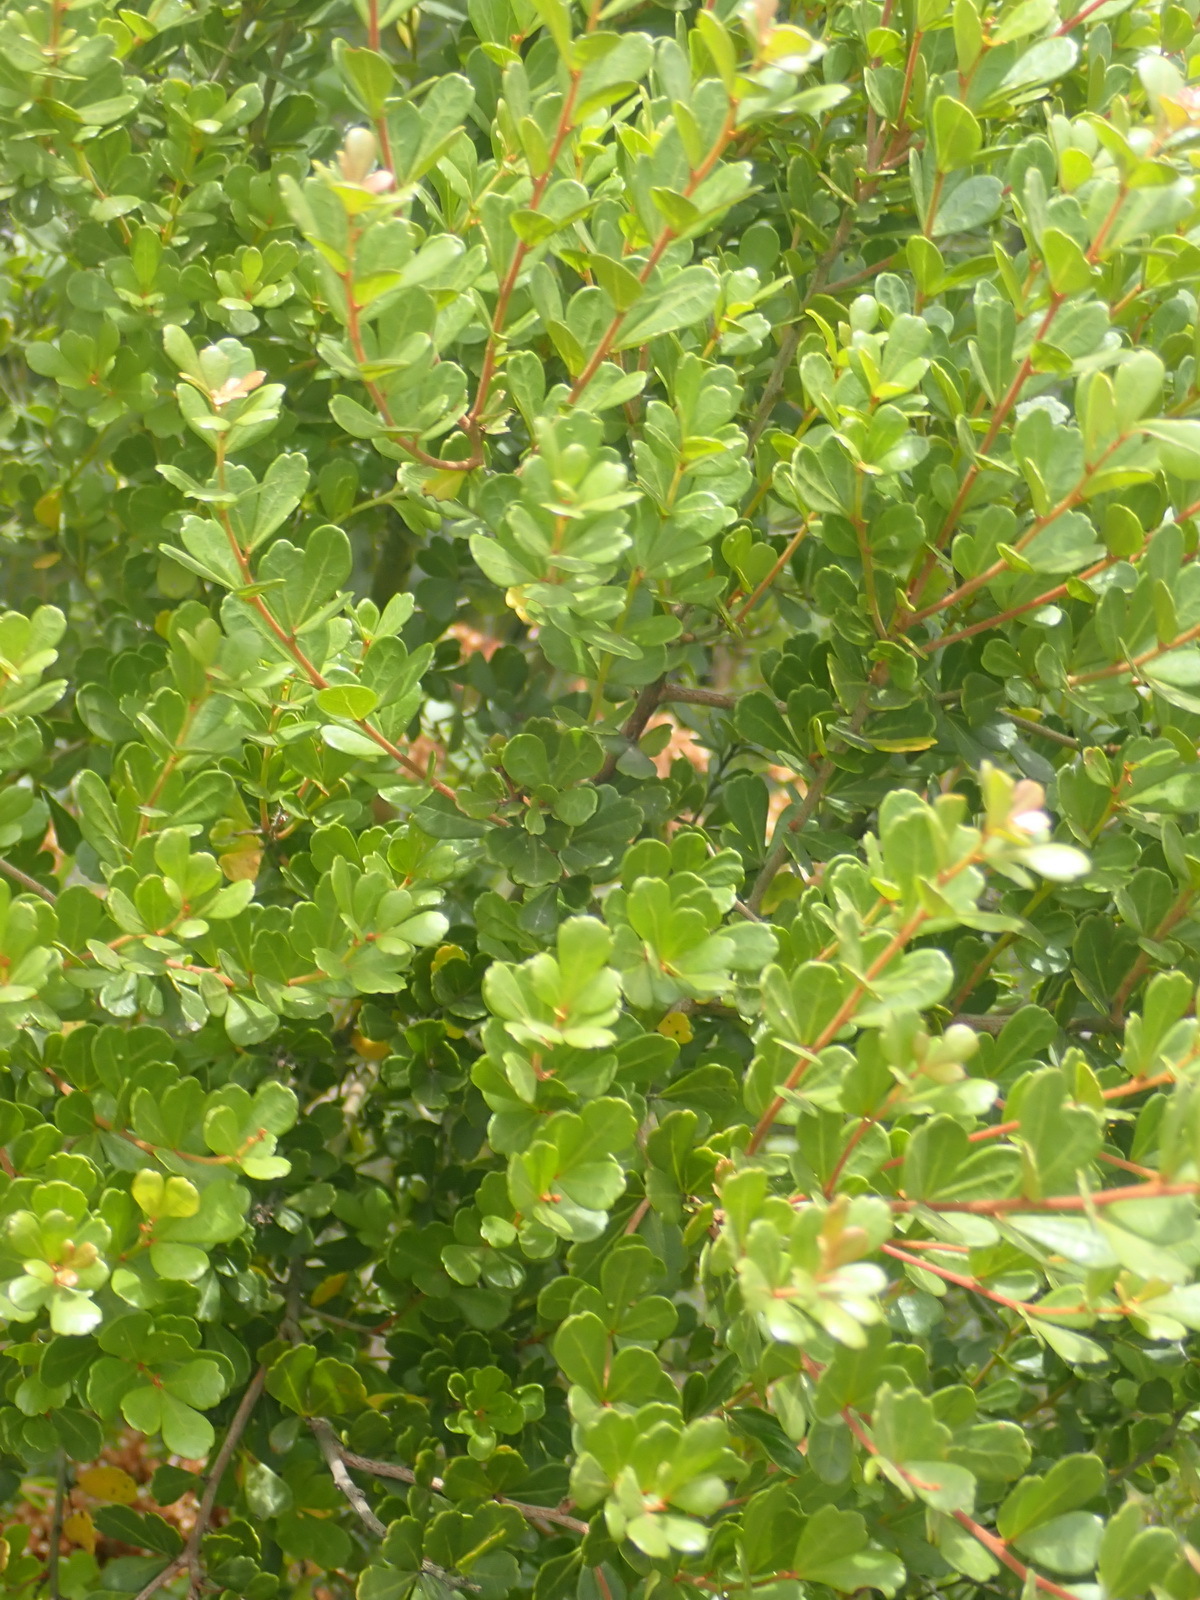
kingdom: Plantae
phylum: Tracheophyta
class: Magnoliopsida
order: Sapindales
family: Anacardiaceae
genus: Searsia
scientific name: Searsia crenata
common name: Crowberry
